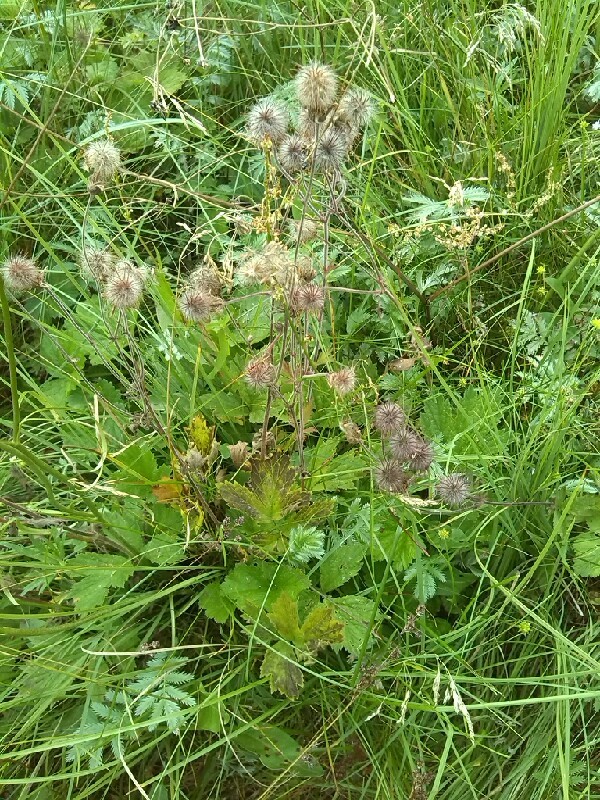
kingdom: Plantae
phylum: Tracheophyta
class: Magnoliopsida
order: Rosales
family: Rosaceae
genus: Geum
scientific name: Geum rivale
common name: Water avens
